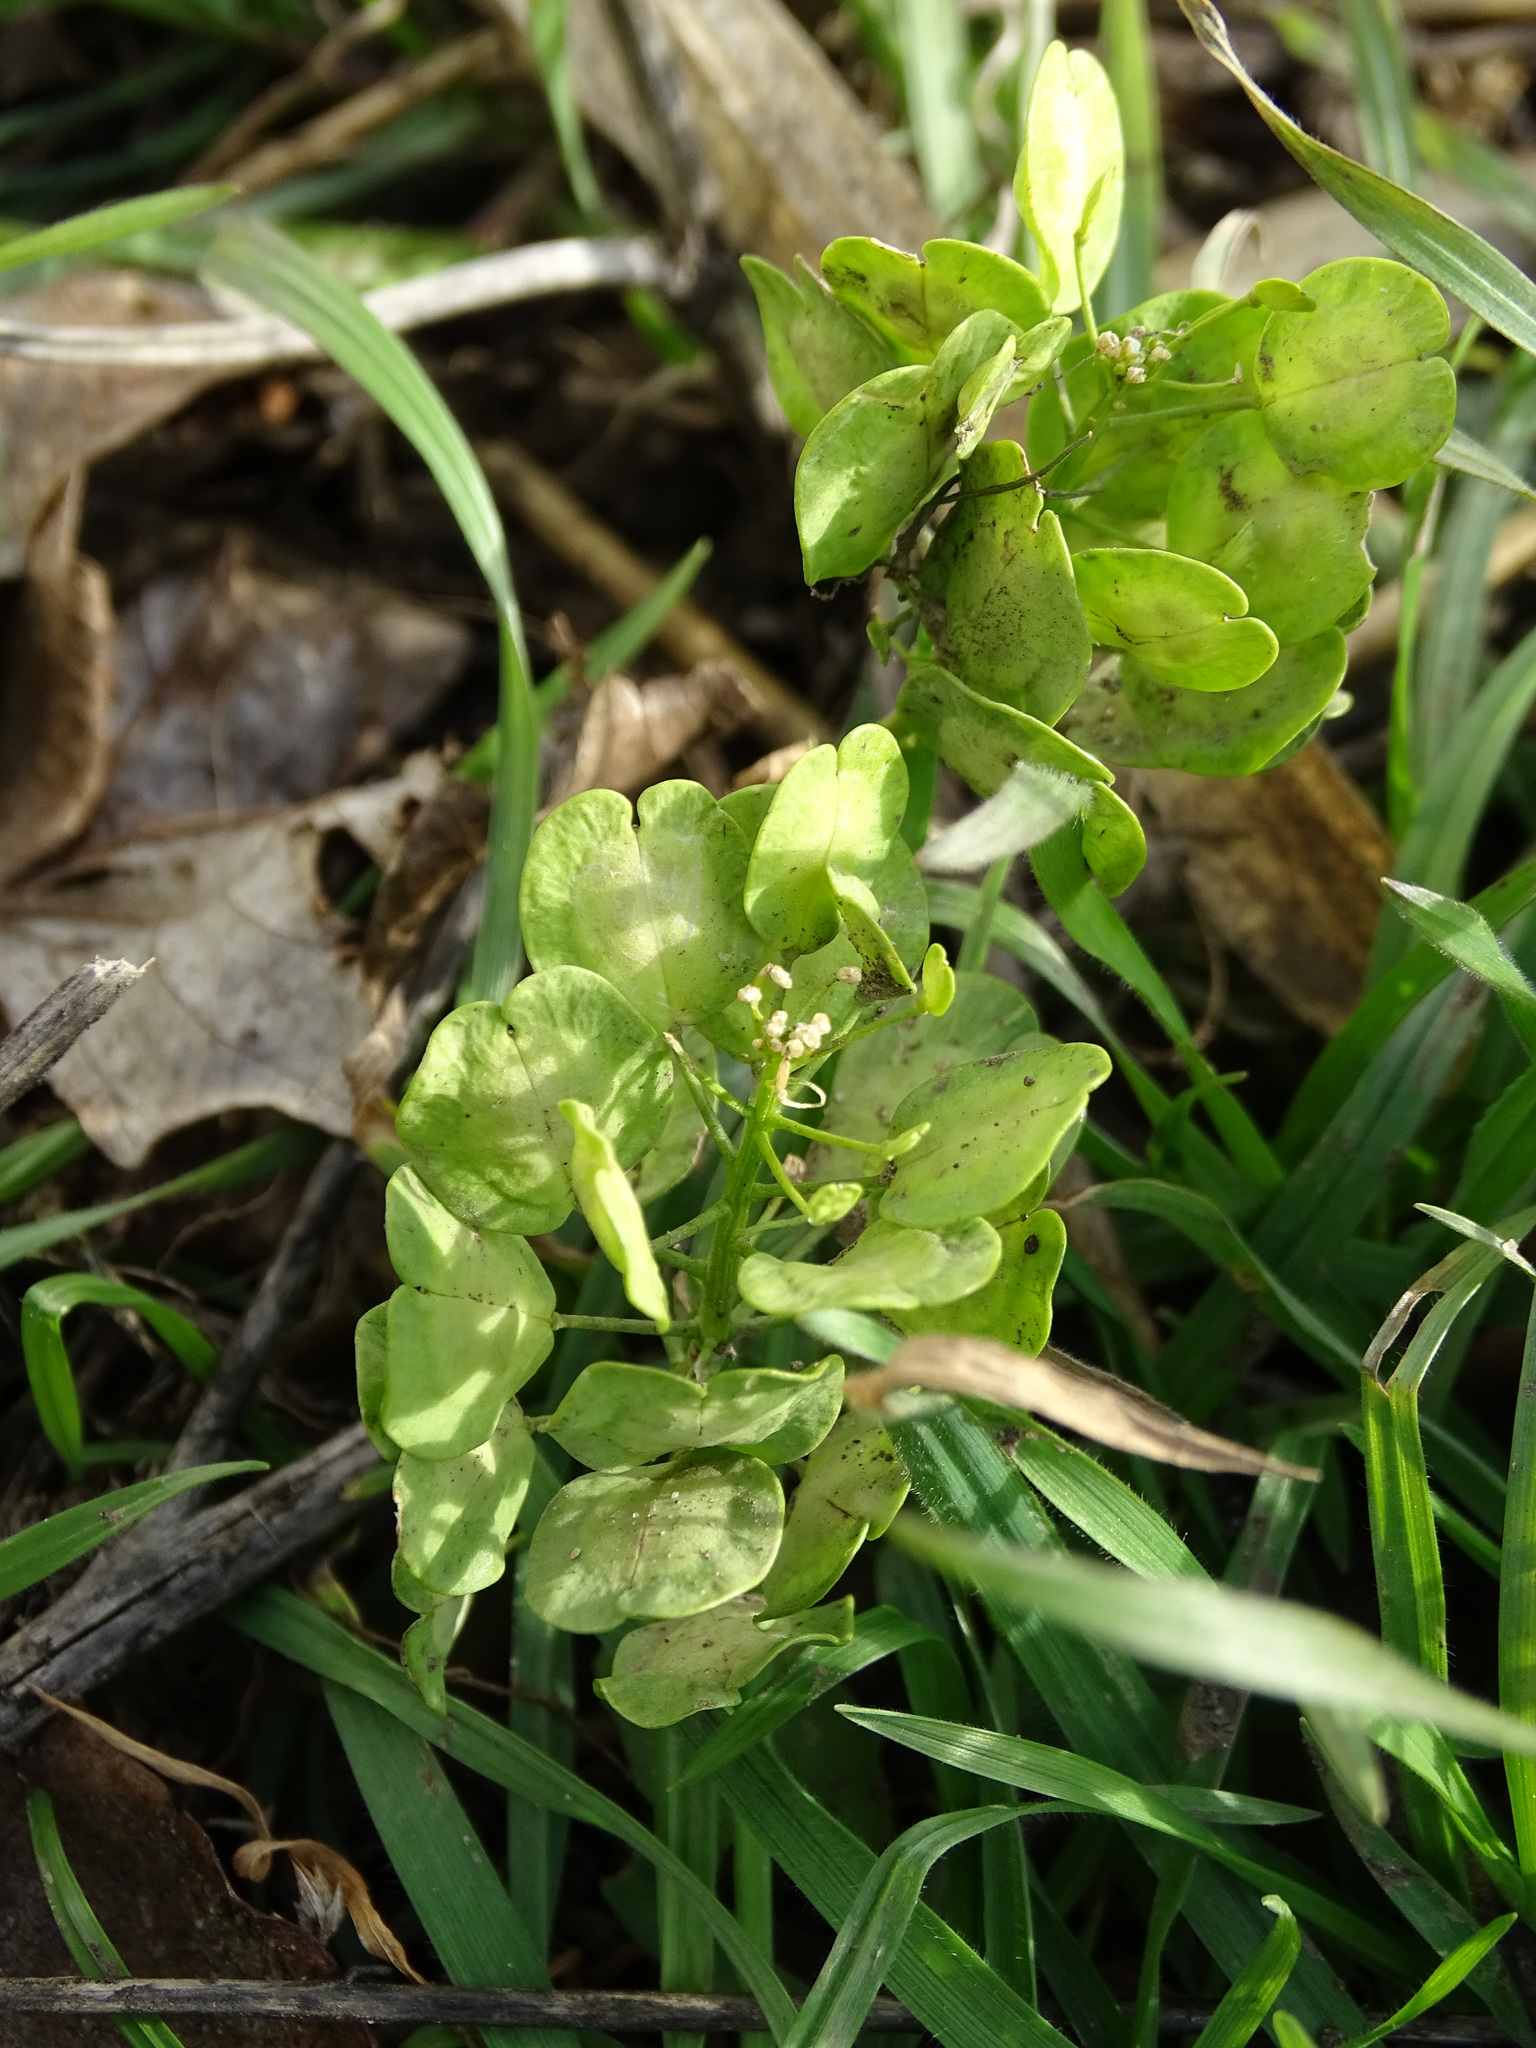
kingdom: Plantae
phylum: Tracheophyta
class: Magnoliopsida
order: Brassicales
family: Brassicaceae
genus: Thlaspi
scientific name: Thlaspi arvense
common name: Field pennycress
